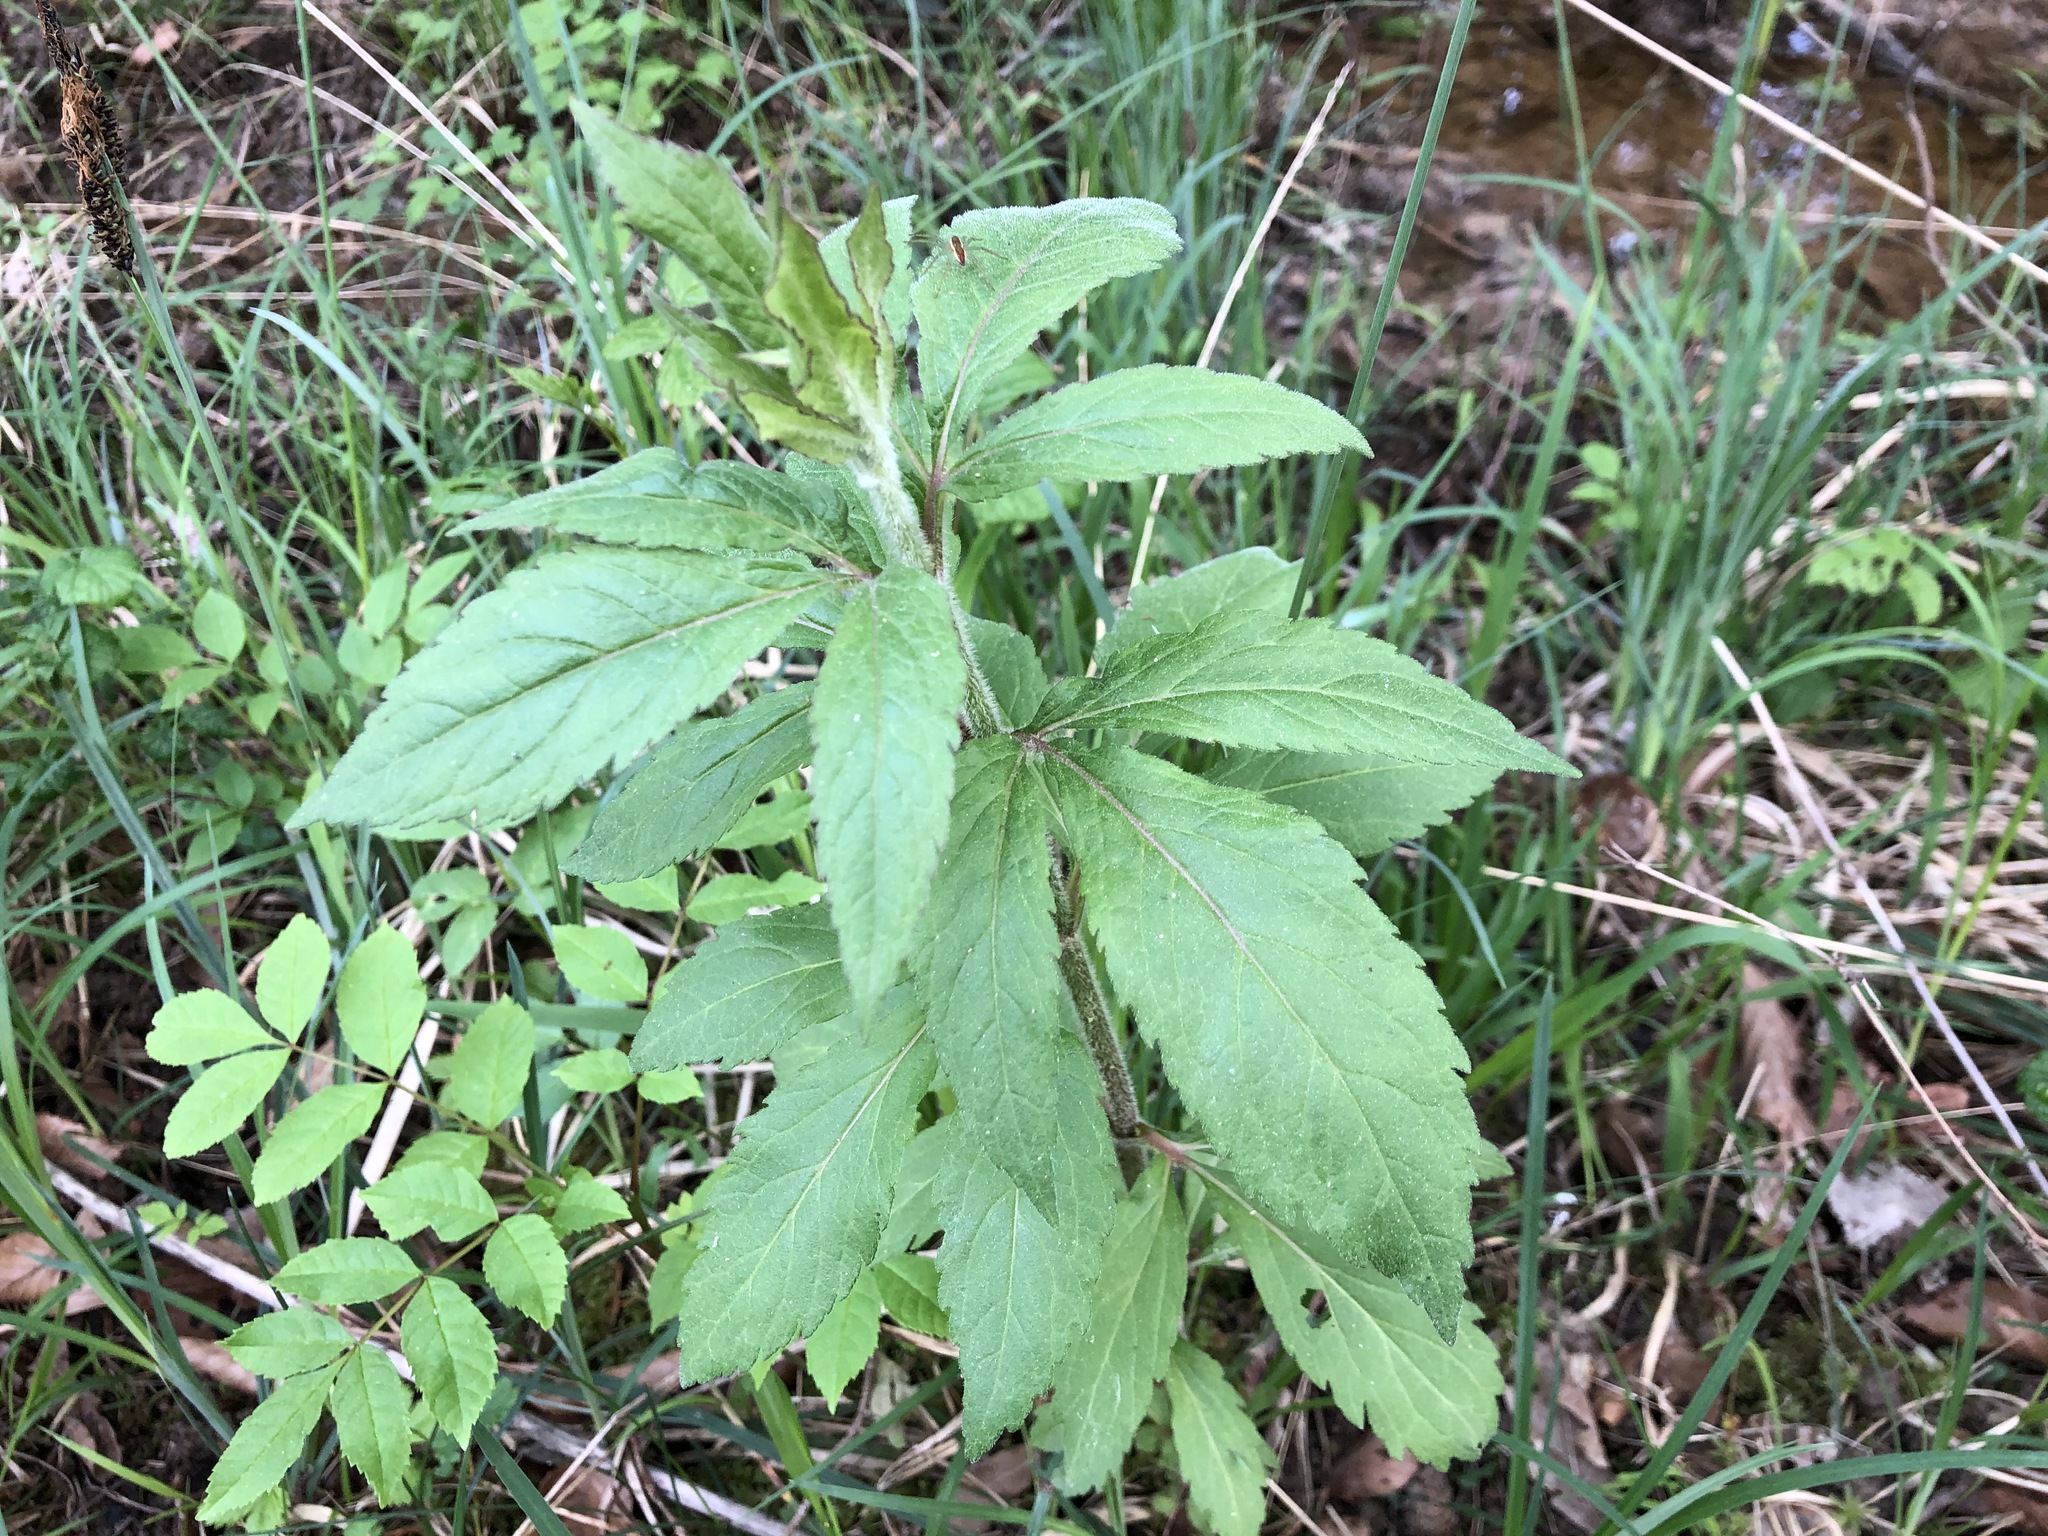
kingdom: Plantae
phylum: Tracheophyta
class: Magnoliopsida
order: Asterales
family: Asteraceae
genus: Eupatorium
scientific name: Eupatorium cannabinum
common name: Hemp-agrimony
